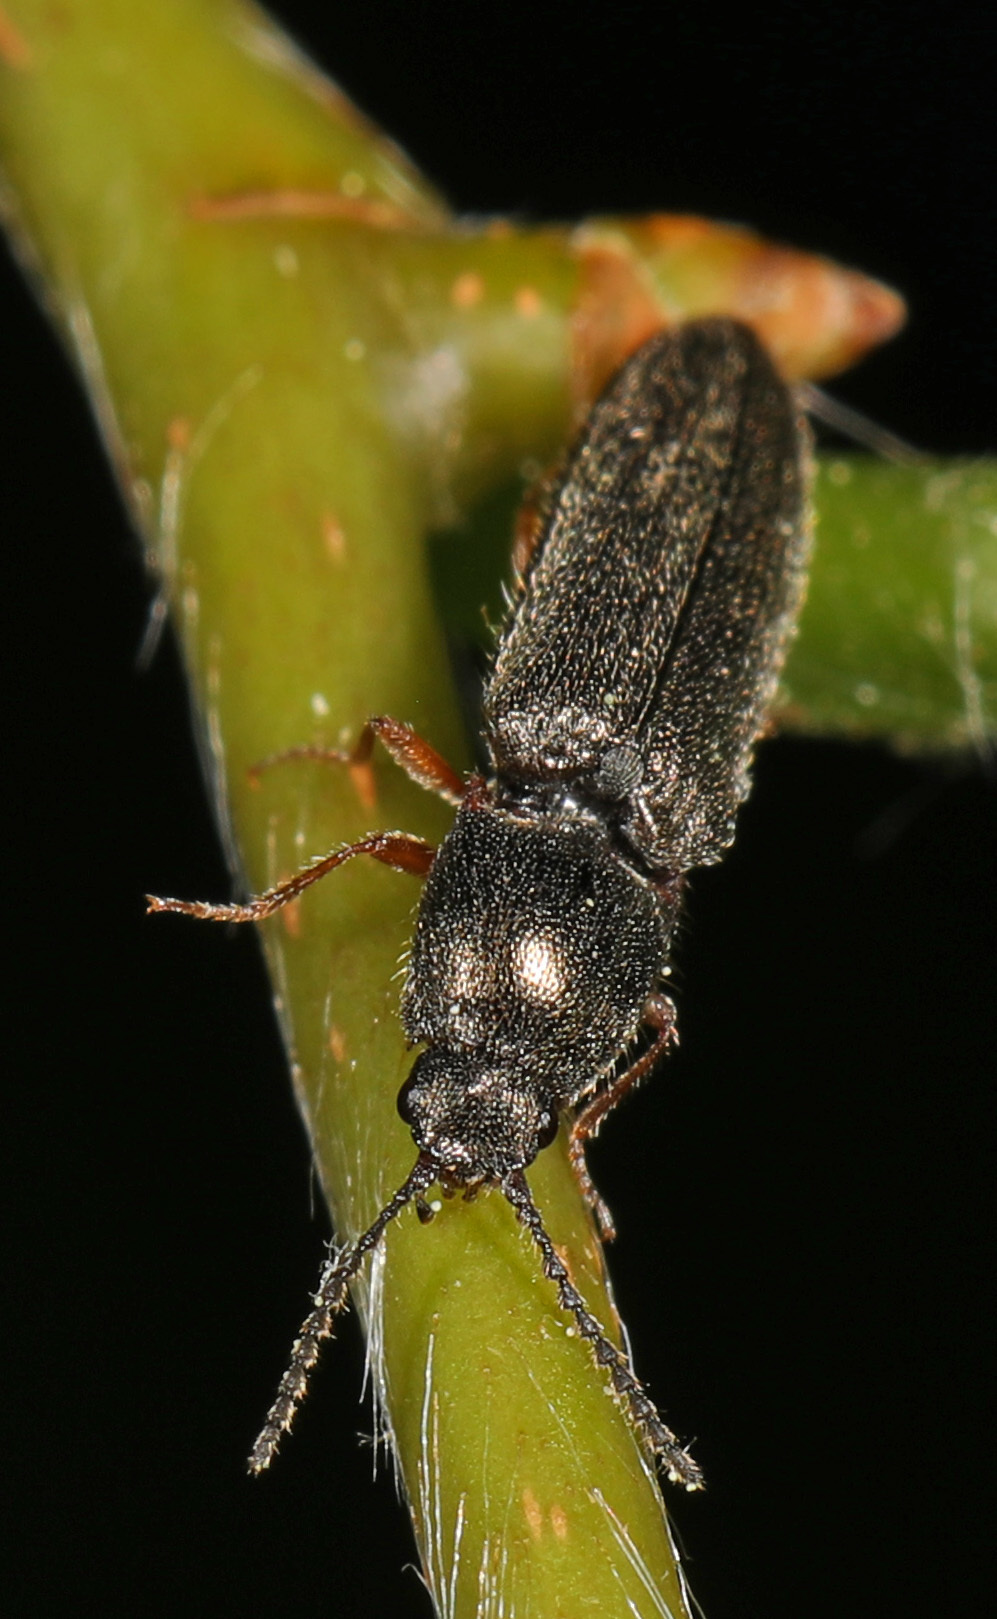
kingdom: Animalia
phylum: Arthropoda
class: Insecta
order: Coleoptera
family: Elateridae
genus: Limonius
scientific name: Limonius basilaris
